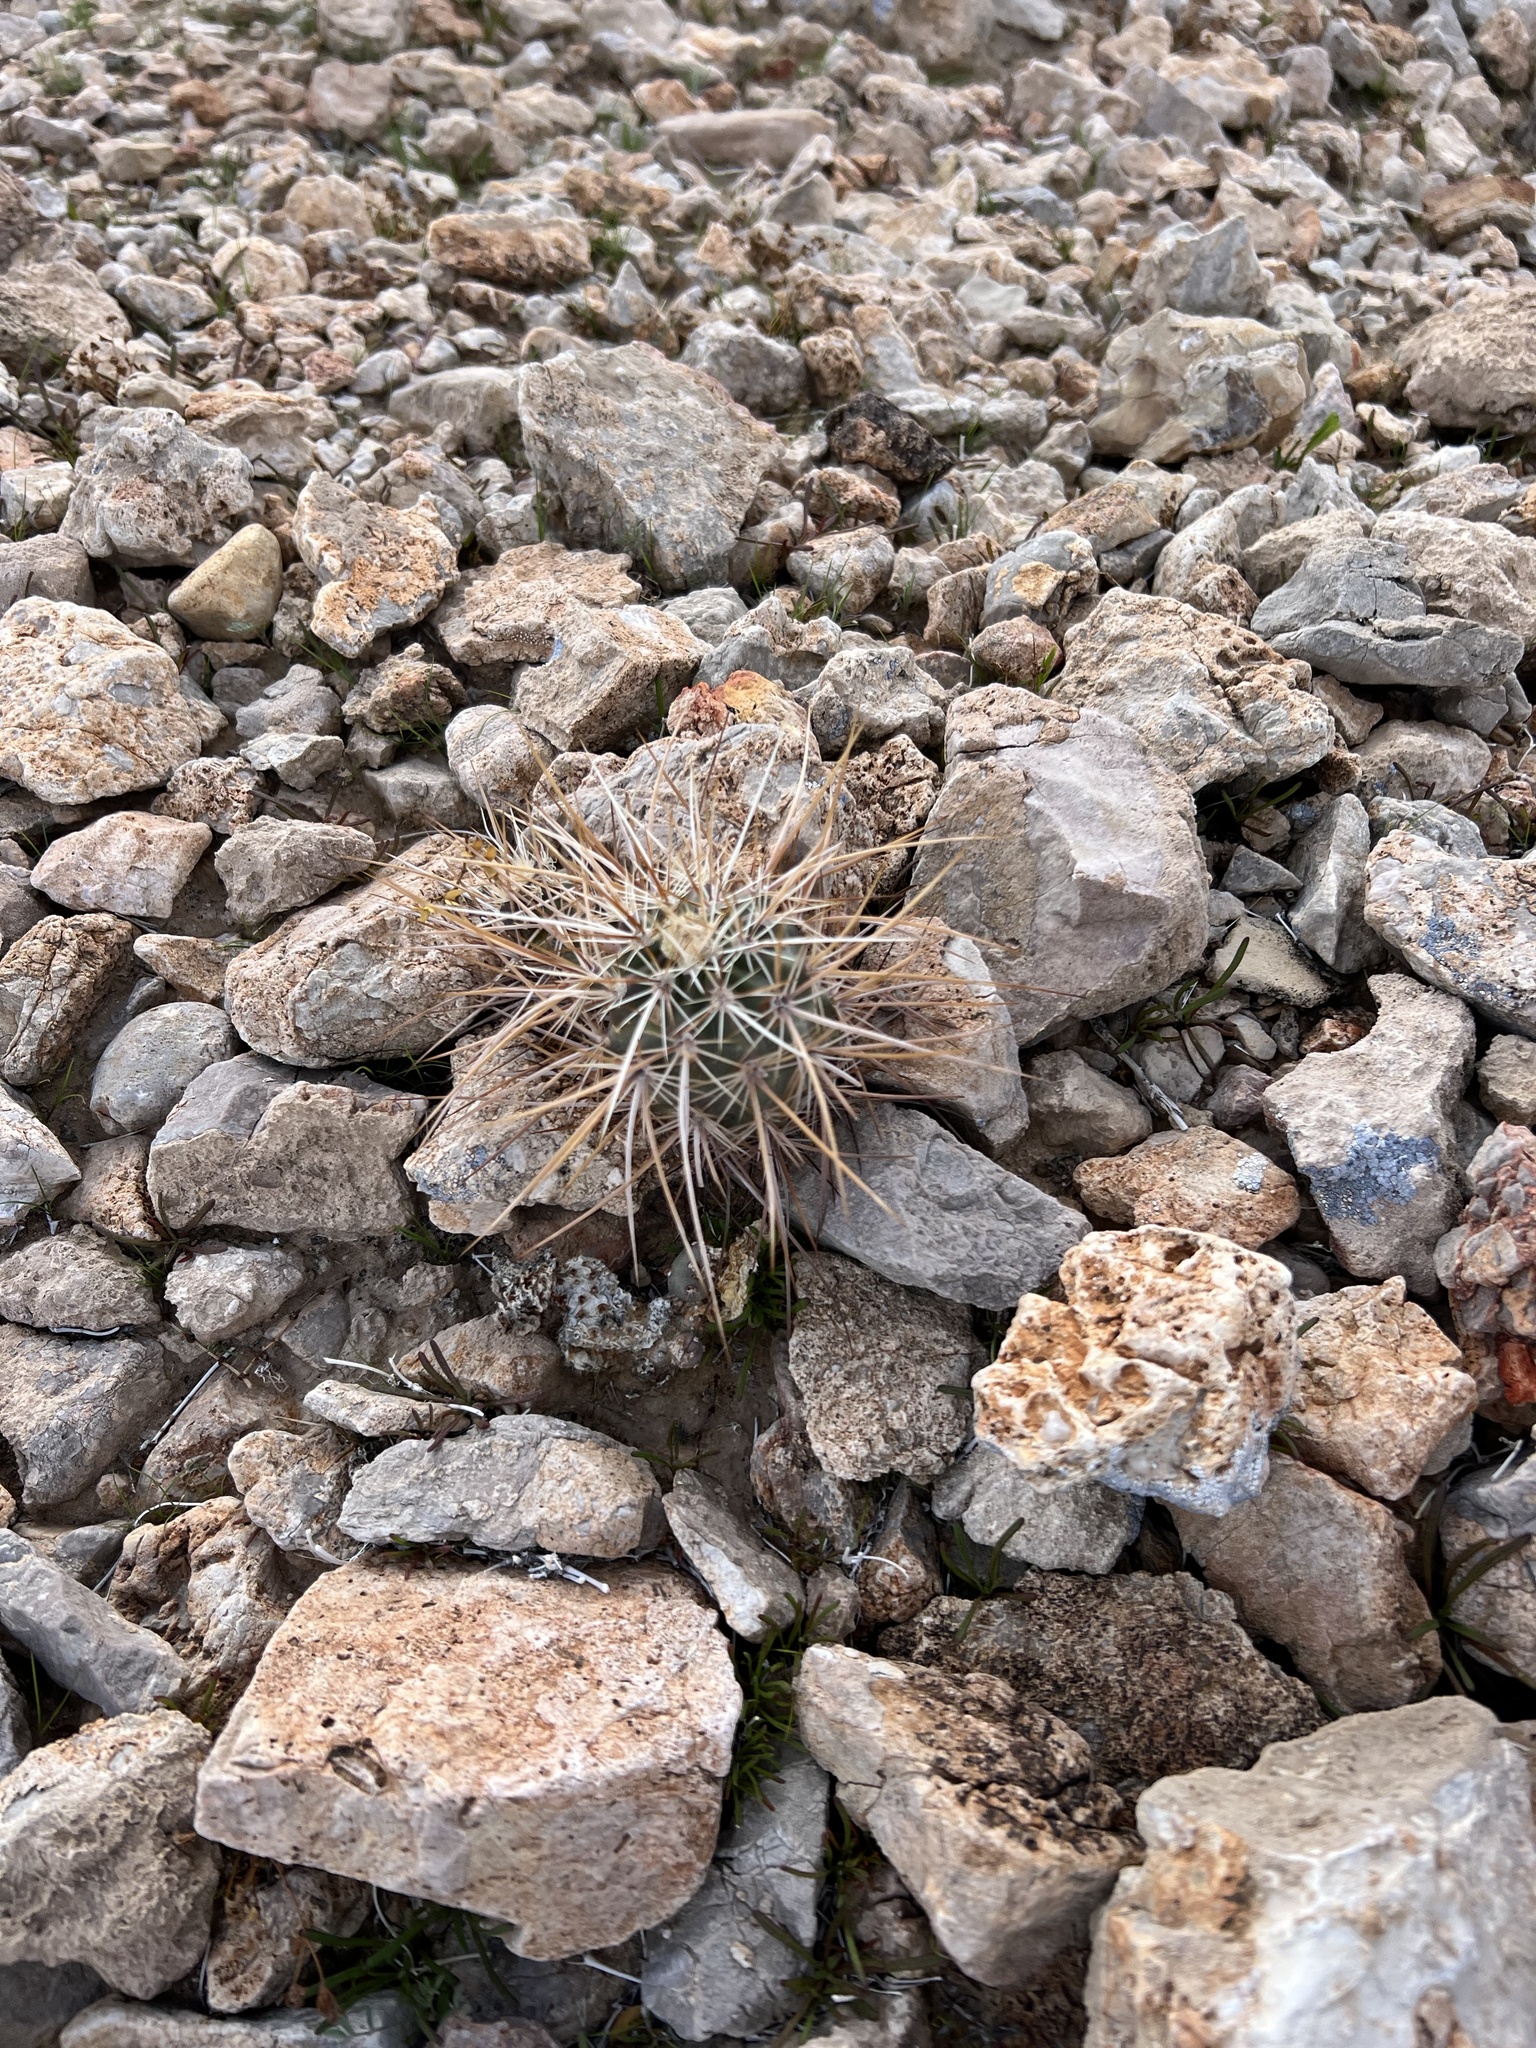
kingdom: Plantae
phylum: Tracheophyta
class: Magnoliopsida
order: Caryophyllales
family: Cactaceae
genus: Echinocereus
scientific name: Echinocereus engelmannii
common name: Engelmann's hedgehog cactus
